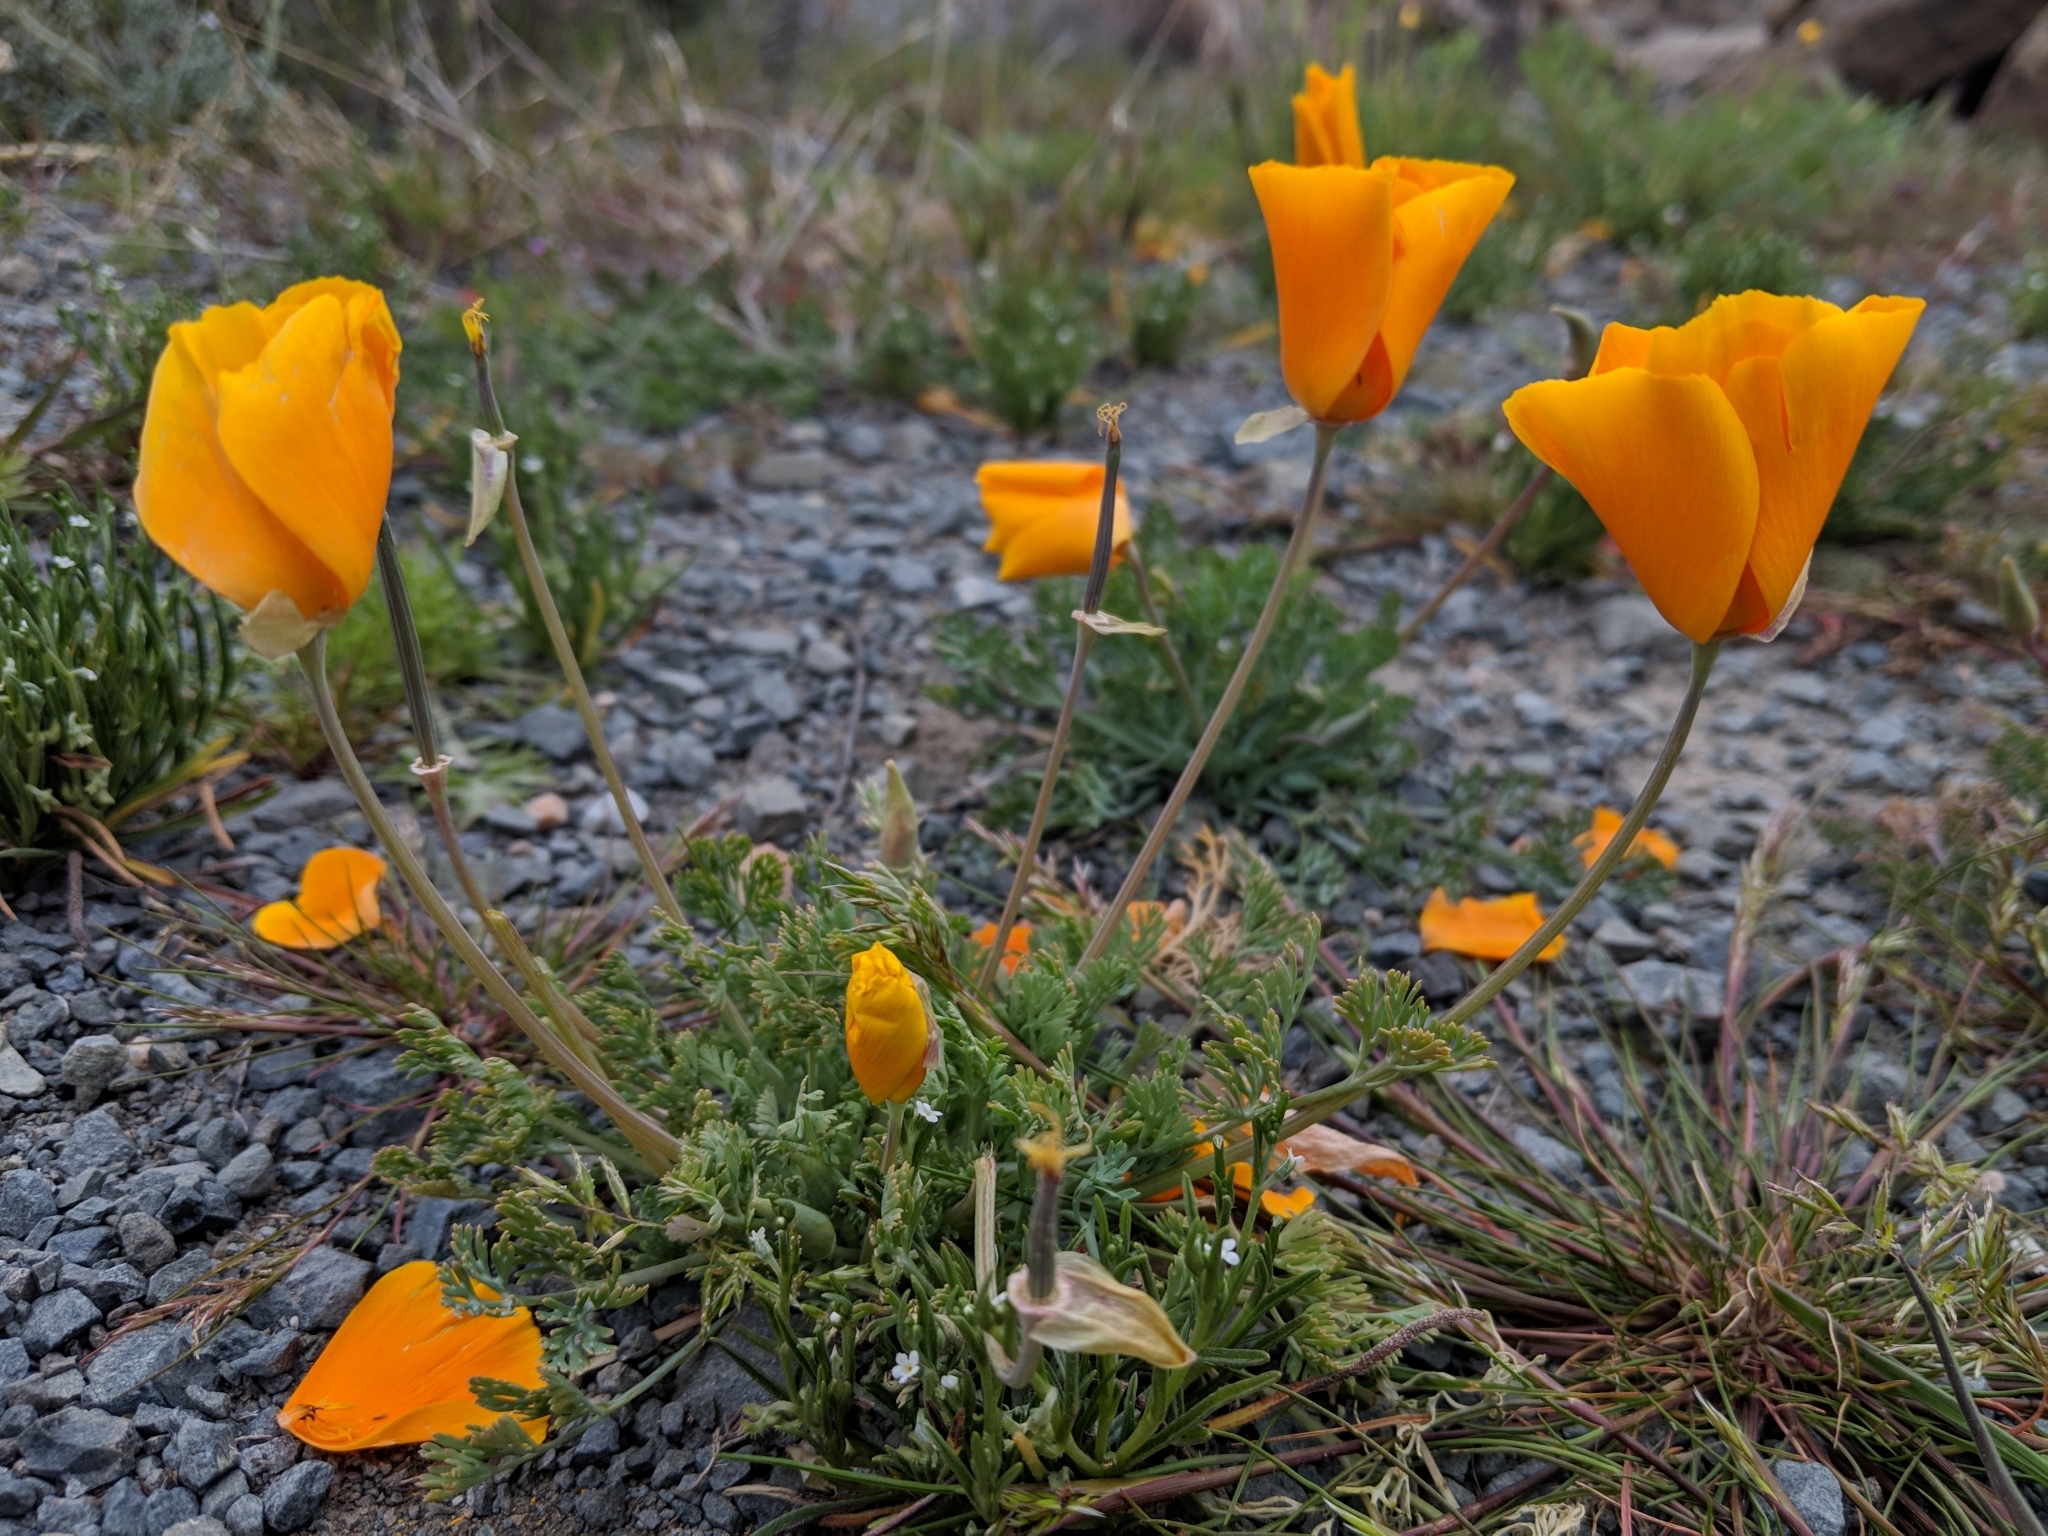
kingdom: Plantae
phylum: Tracheophyta
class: Magnoliopsida
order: Ranunculales
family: Papaveraceae
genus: Eschscholzia
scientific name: Eschscholzia californica
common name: California poppy
